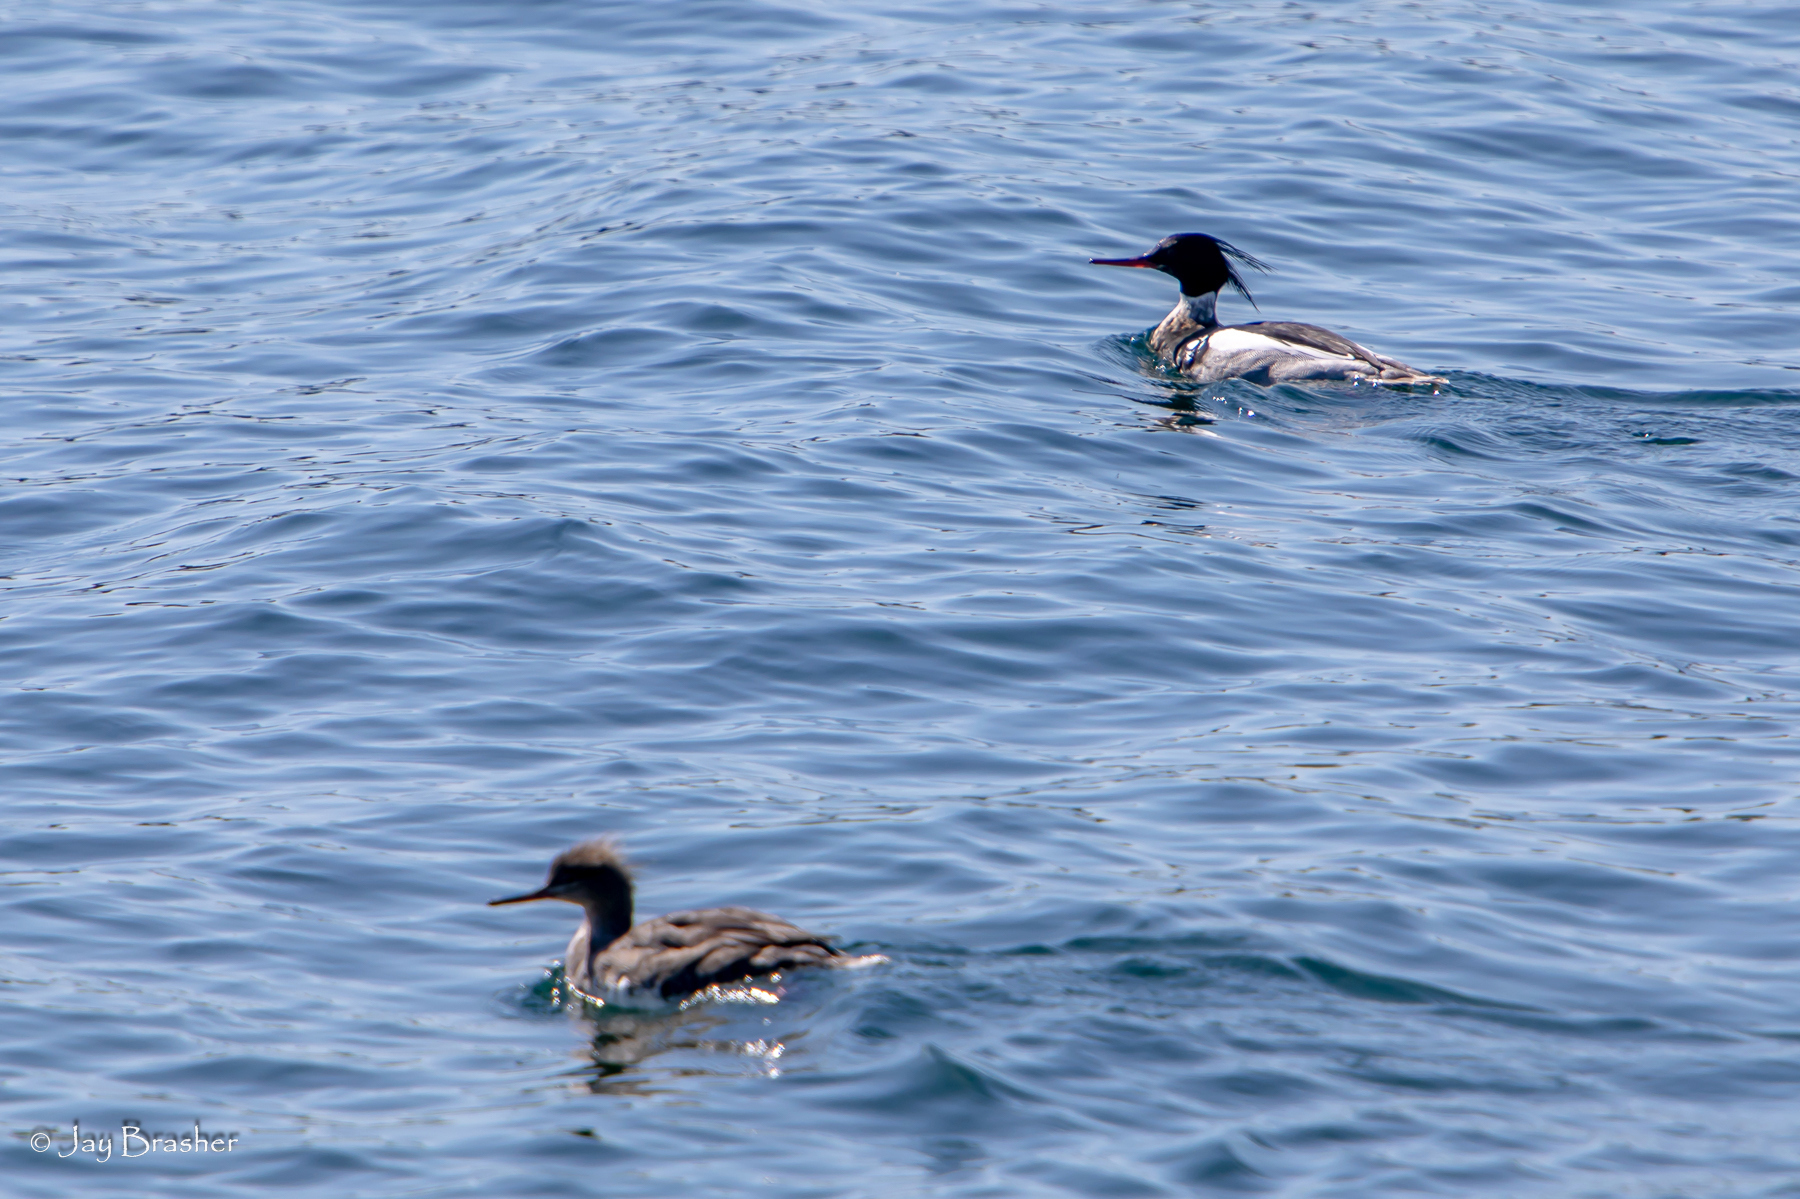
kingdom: Animalia
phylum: Chordata
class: Aves
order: Anseriformes
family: Anatidae
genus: Mergus
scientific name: Mergus serrator
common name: Red-breasted merganser
